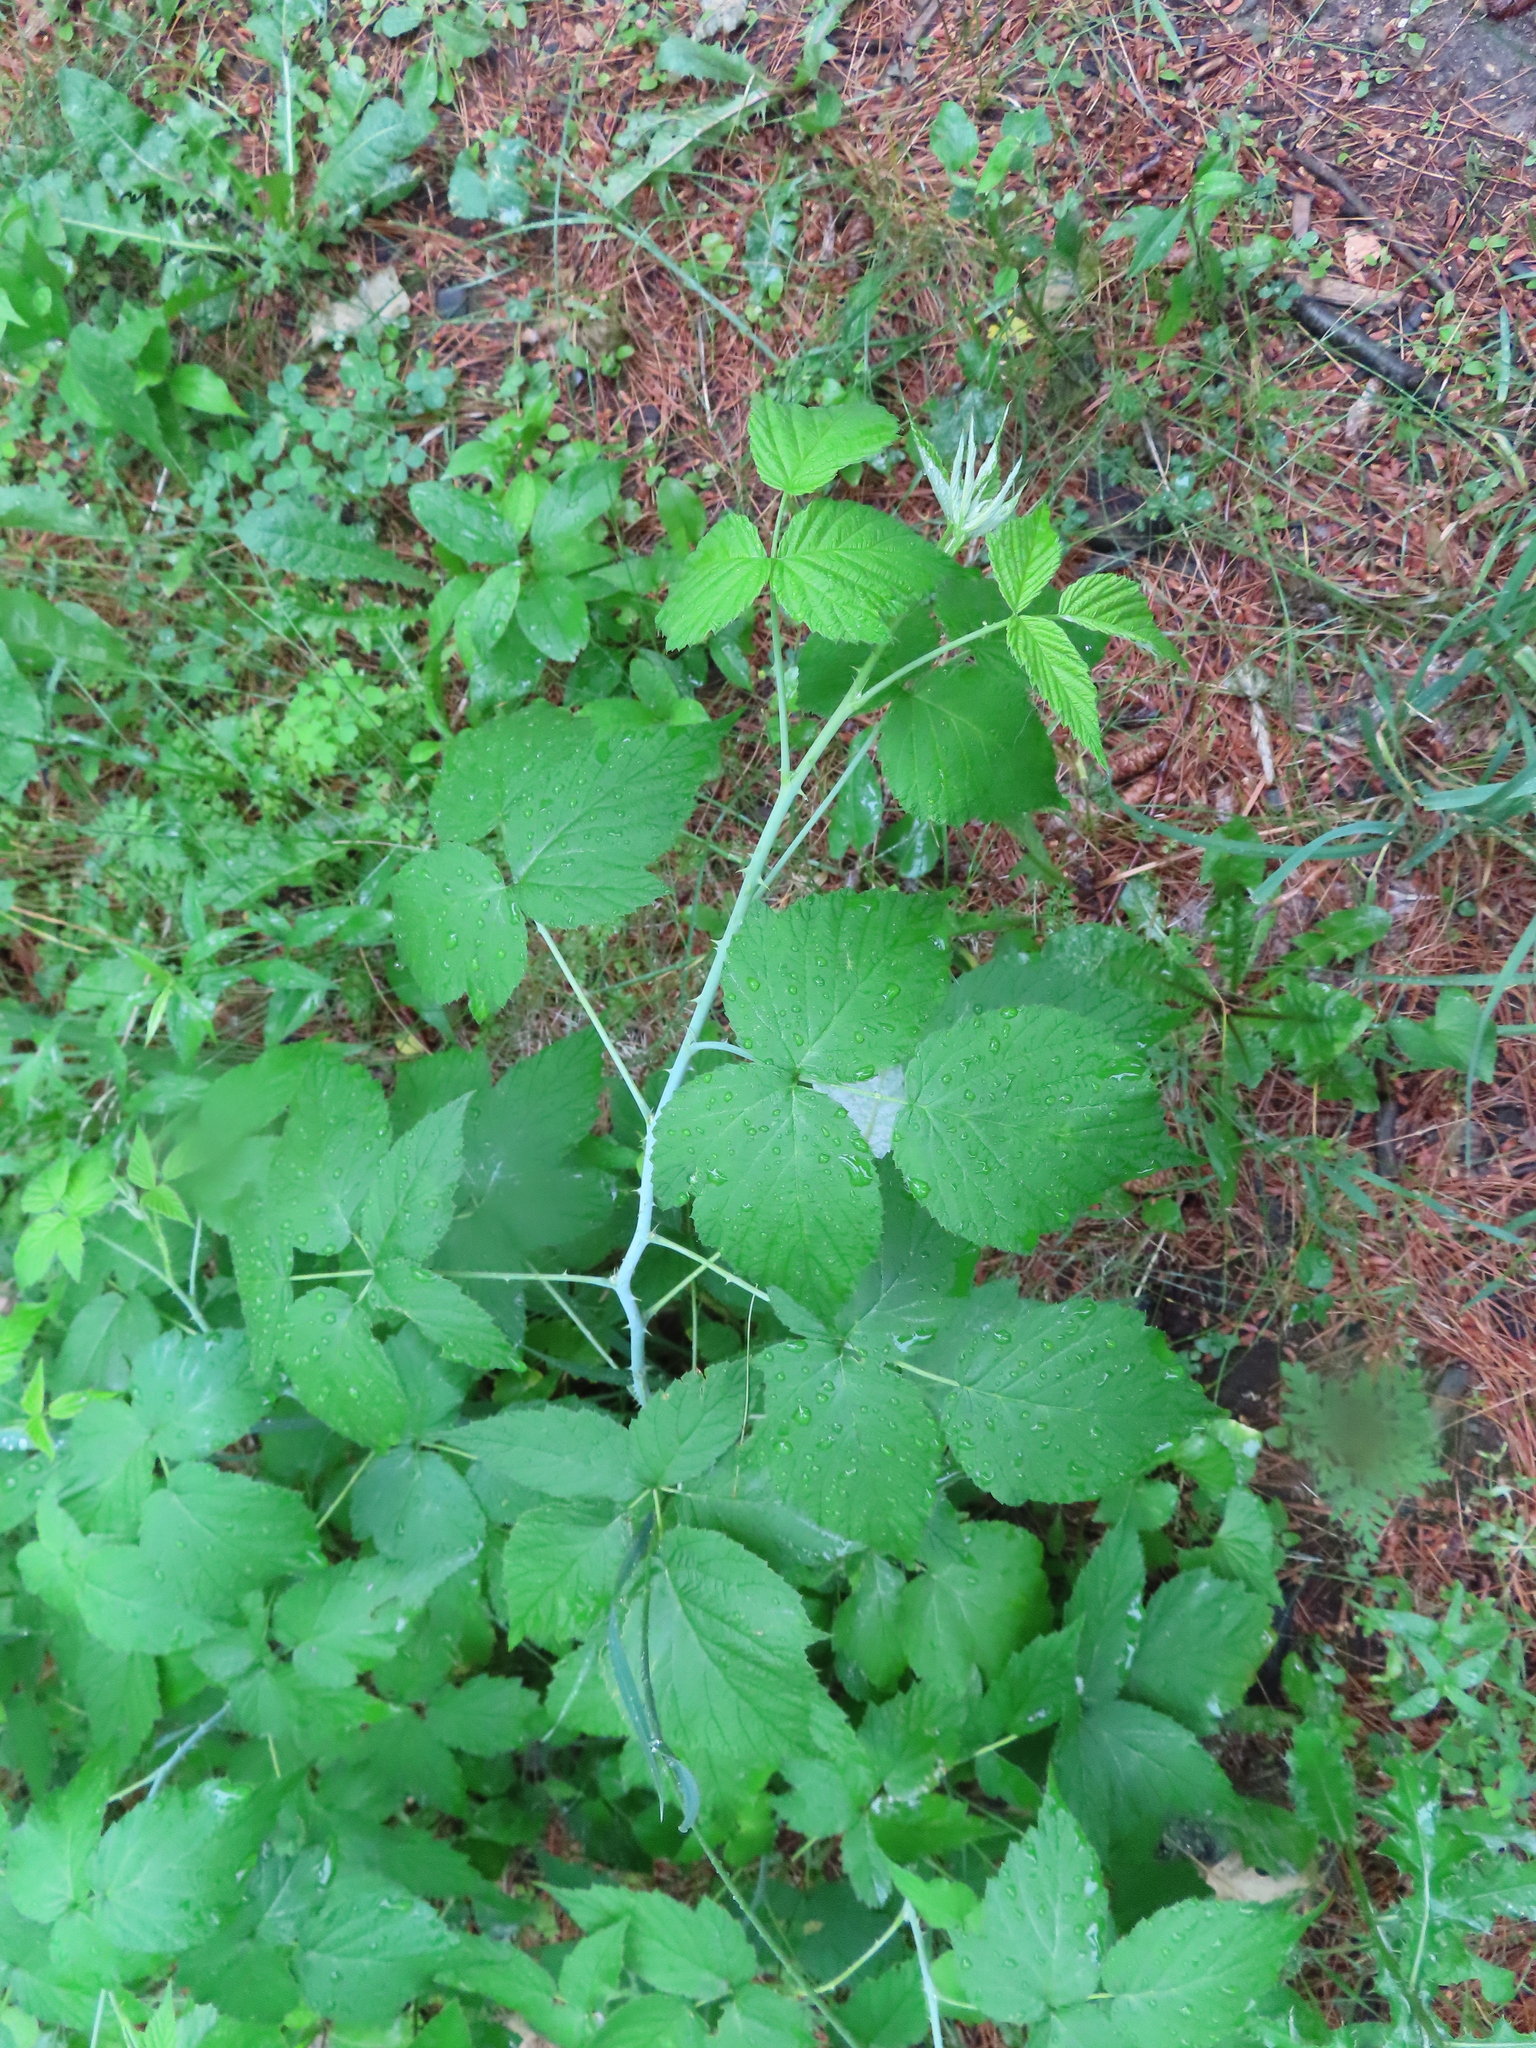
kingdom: Plantae
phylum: Tracheophyta
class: Magnoliopsida
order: Rosales
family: Rosaceae
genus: Rubus
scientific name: Rubus occidentalis
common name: Black raspberry
